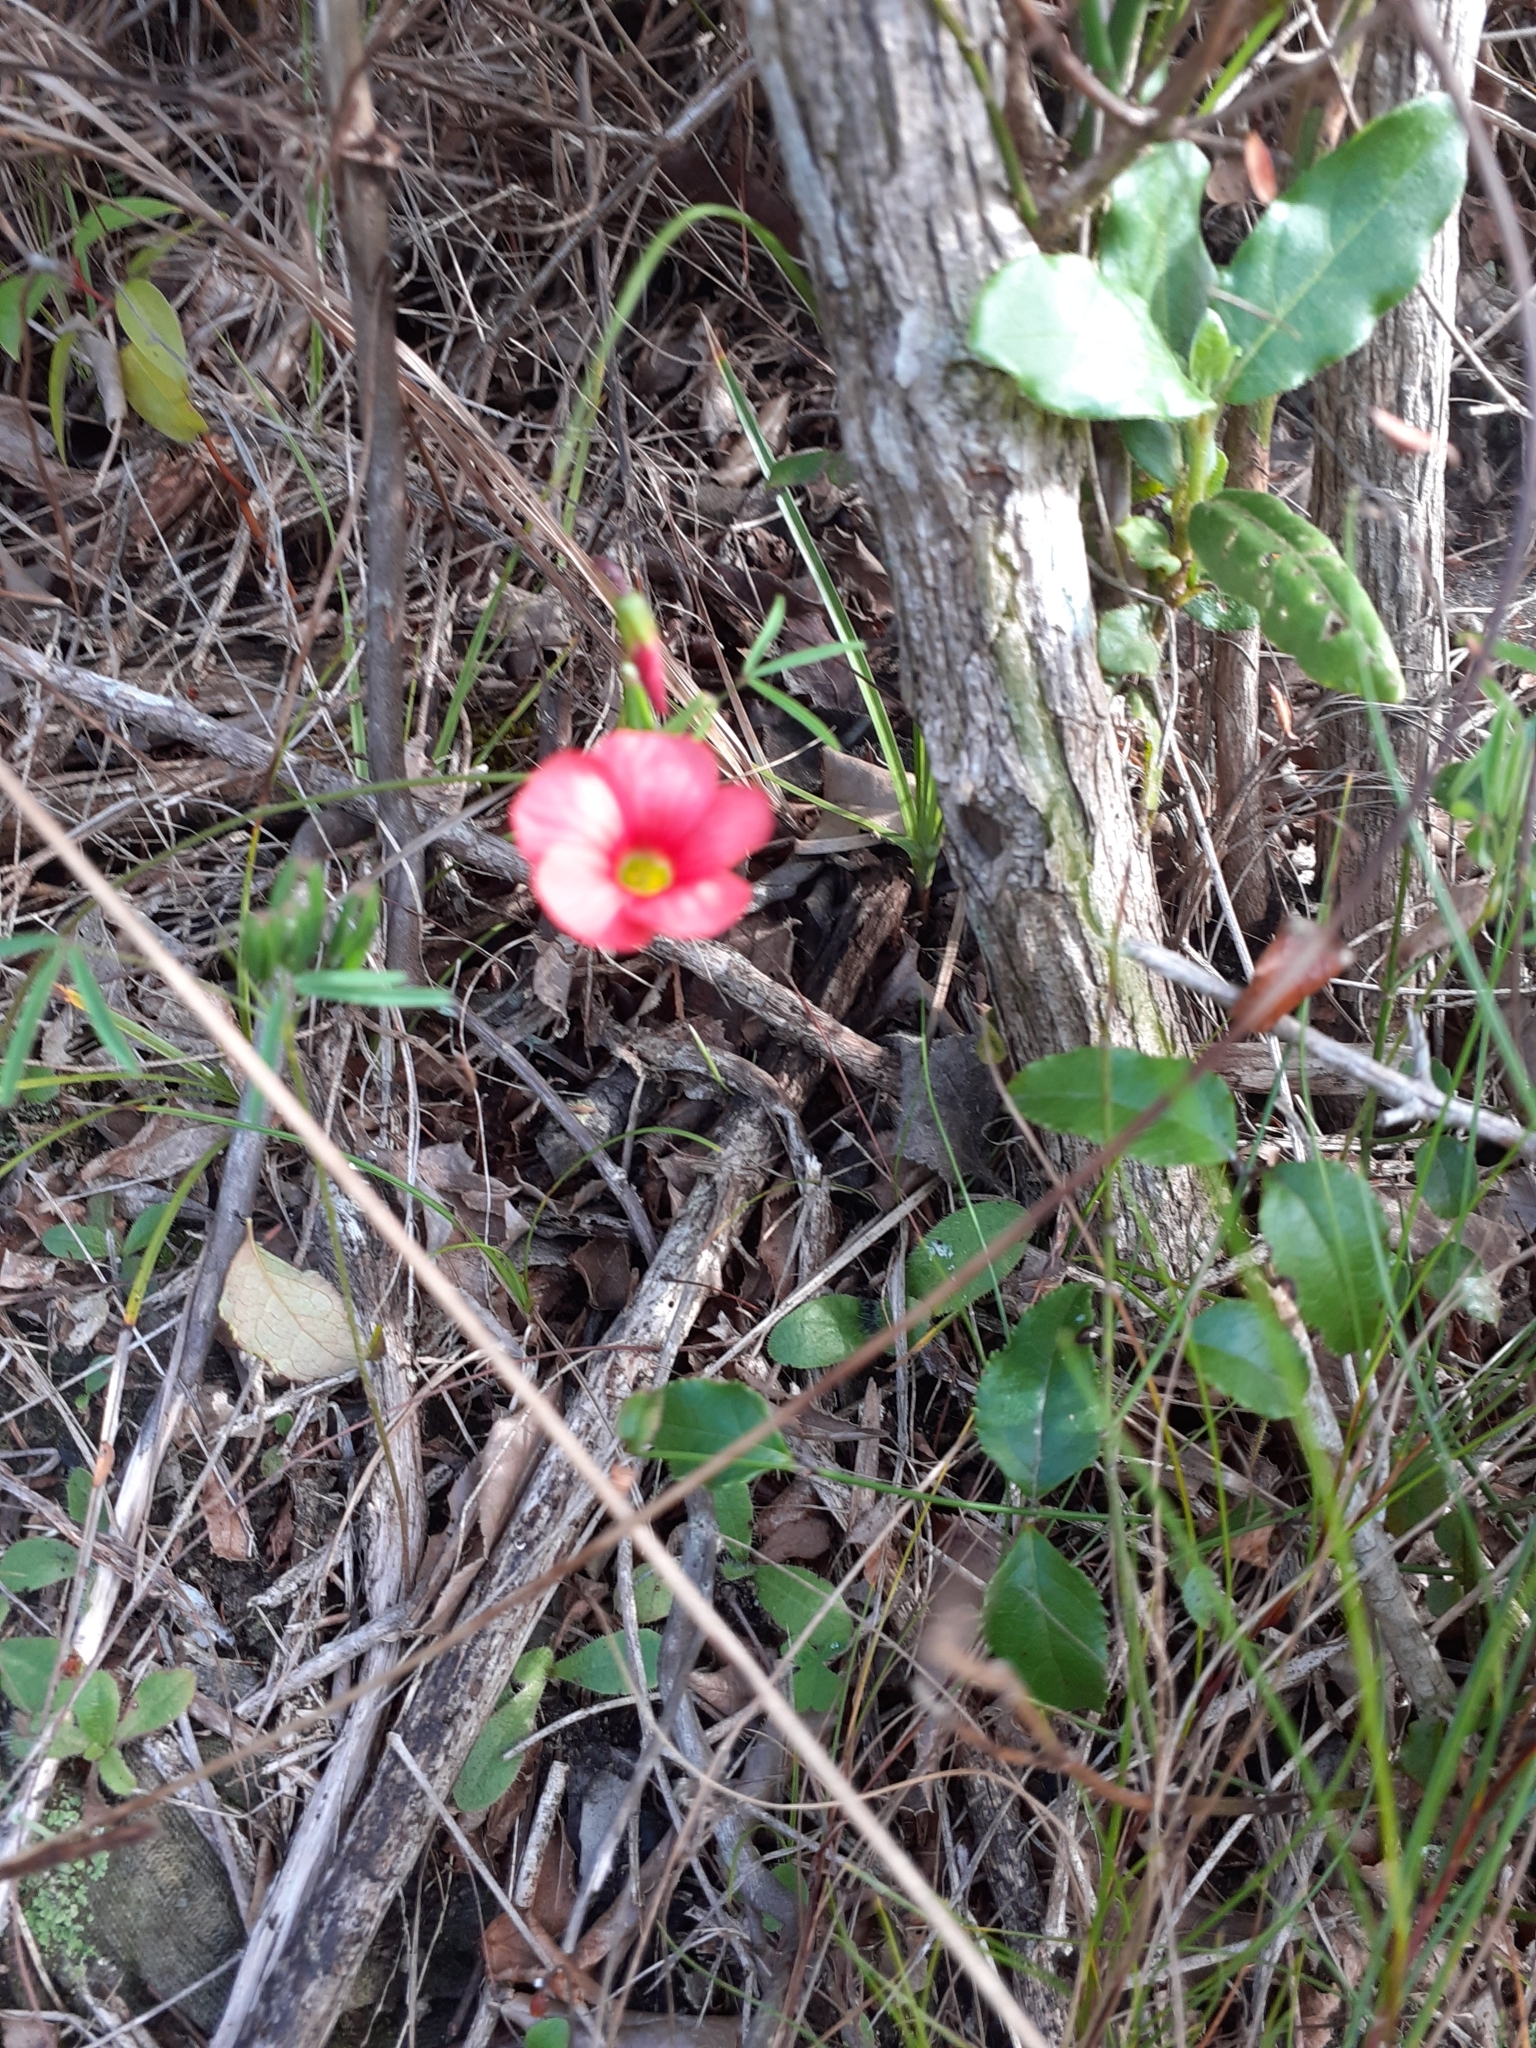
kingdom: Plantae
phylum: Tracheophyta
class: Magnoliopsida
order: Oxalidales
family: Oxalidaceae
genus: Oxalis
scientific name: Oxalis pendulifolia
